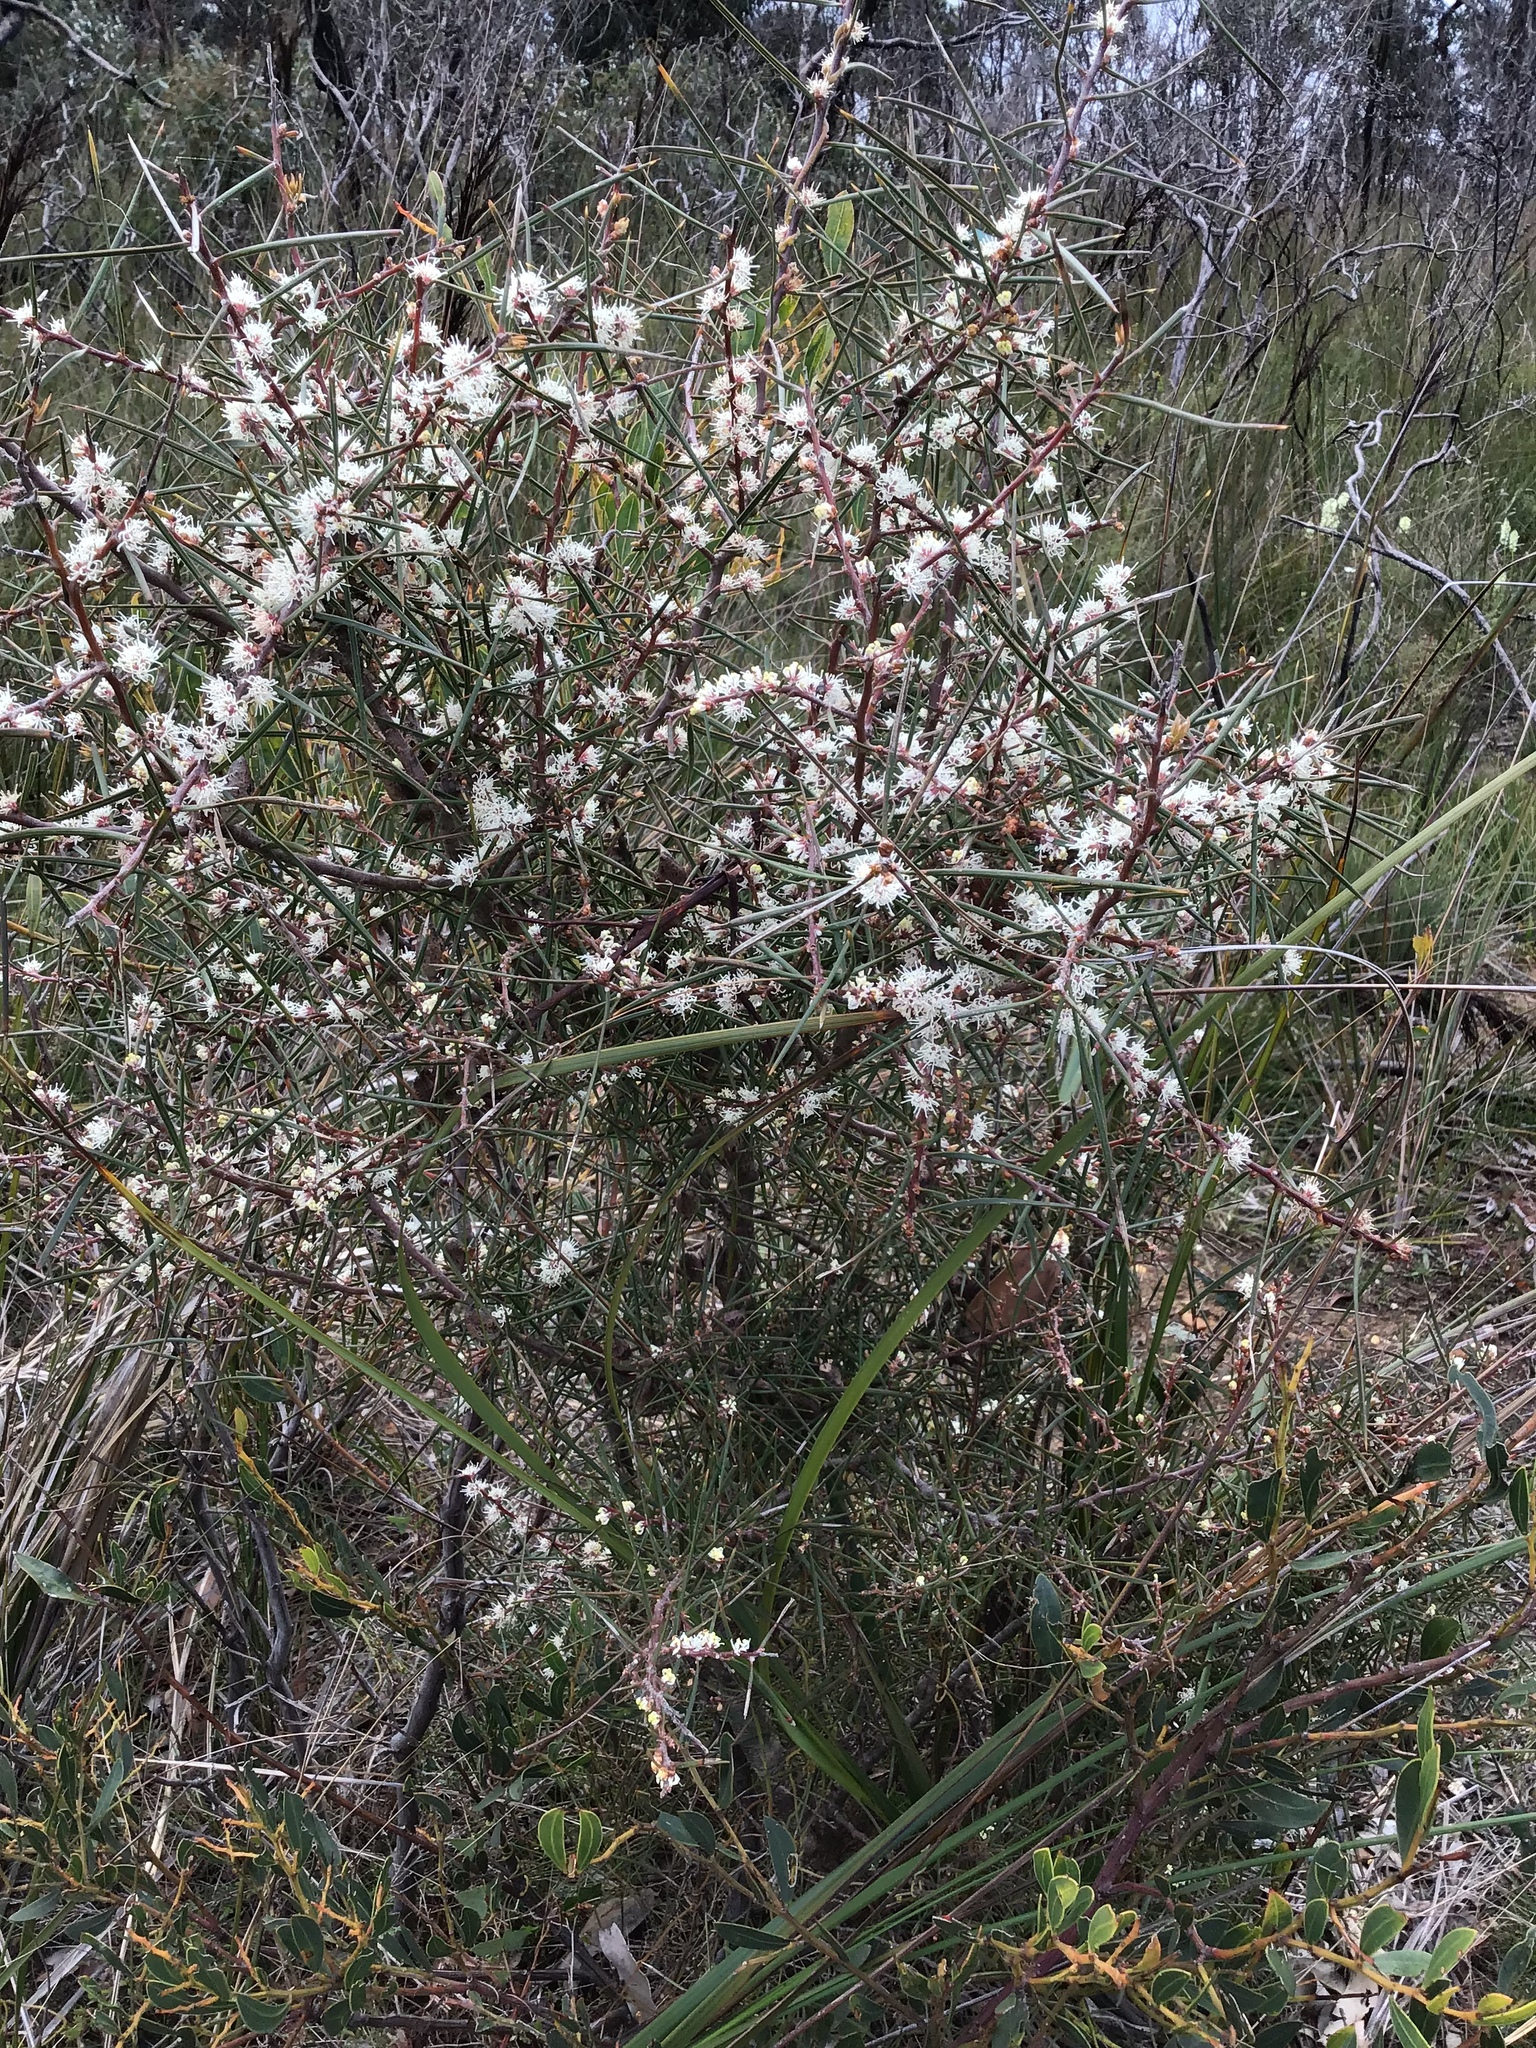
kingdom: Plantae
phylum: Tracheophyta
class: Magnoliopsida
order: Proteales
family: Proteaceae
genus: Hakea
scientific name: Hakea decurrens
